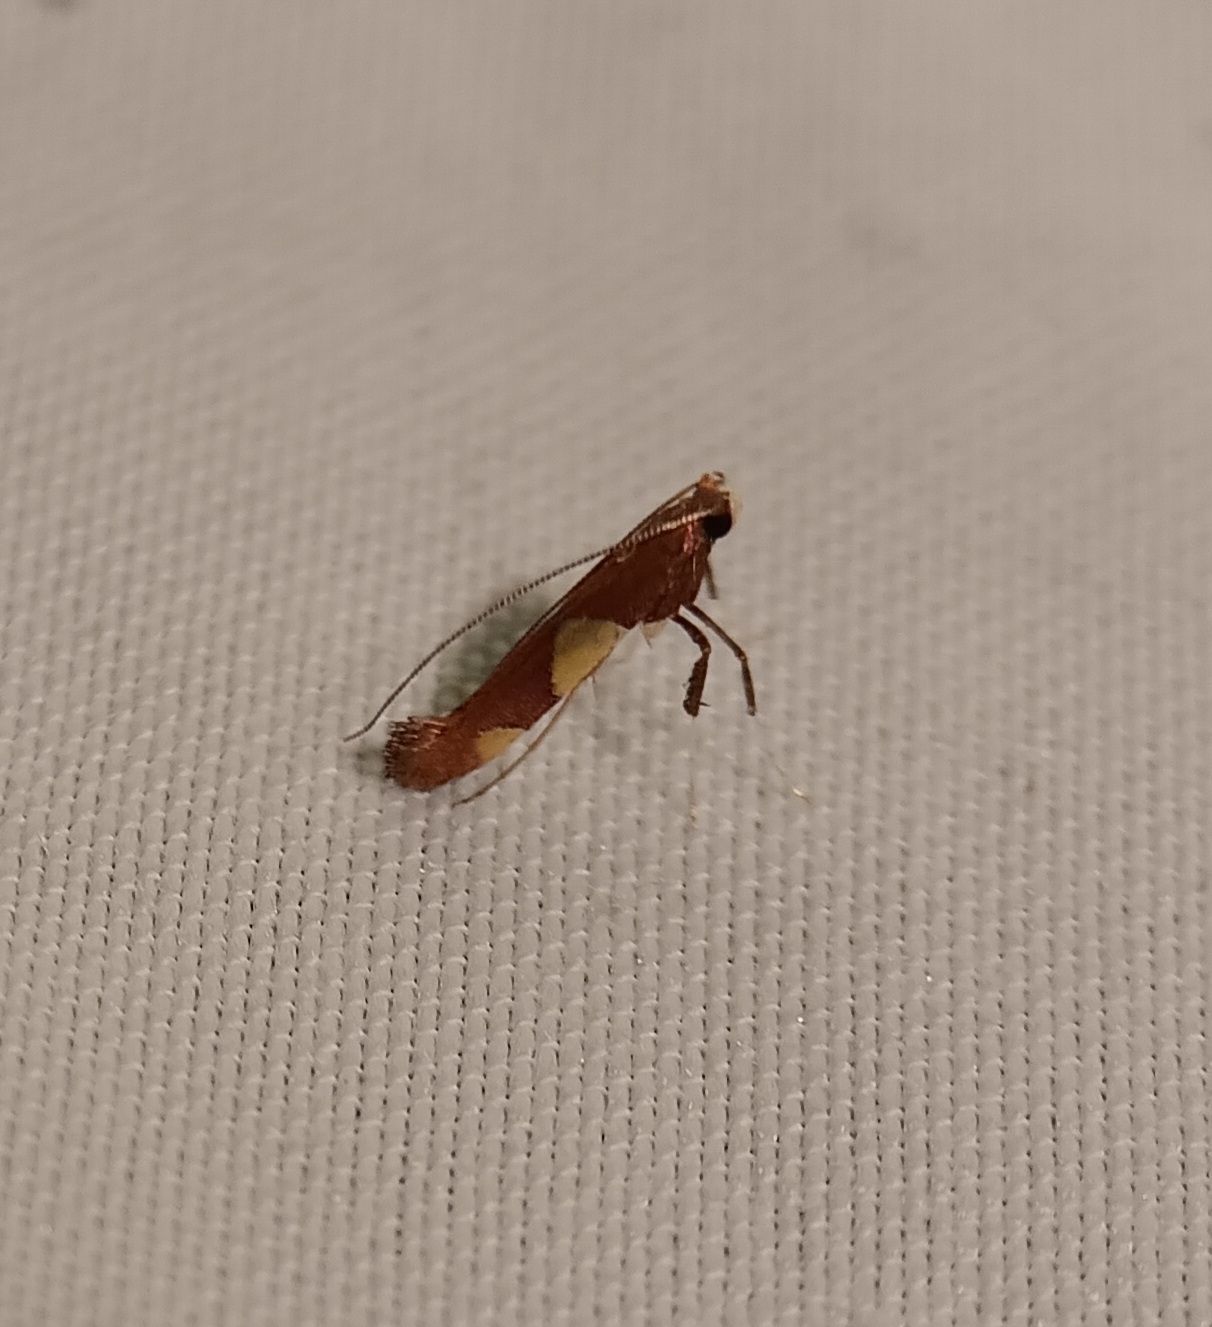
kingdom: Animalia
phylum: Arthropoda
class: Insecta
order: Lepidoptera
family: Gracillariidae
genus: Caloptilia
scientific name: Caloptilia bimaculatella
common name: Maple caloptilia moth
